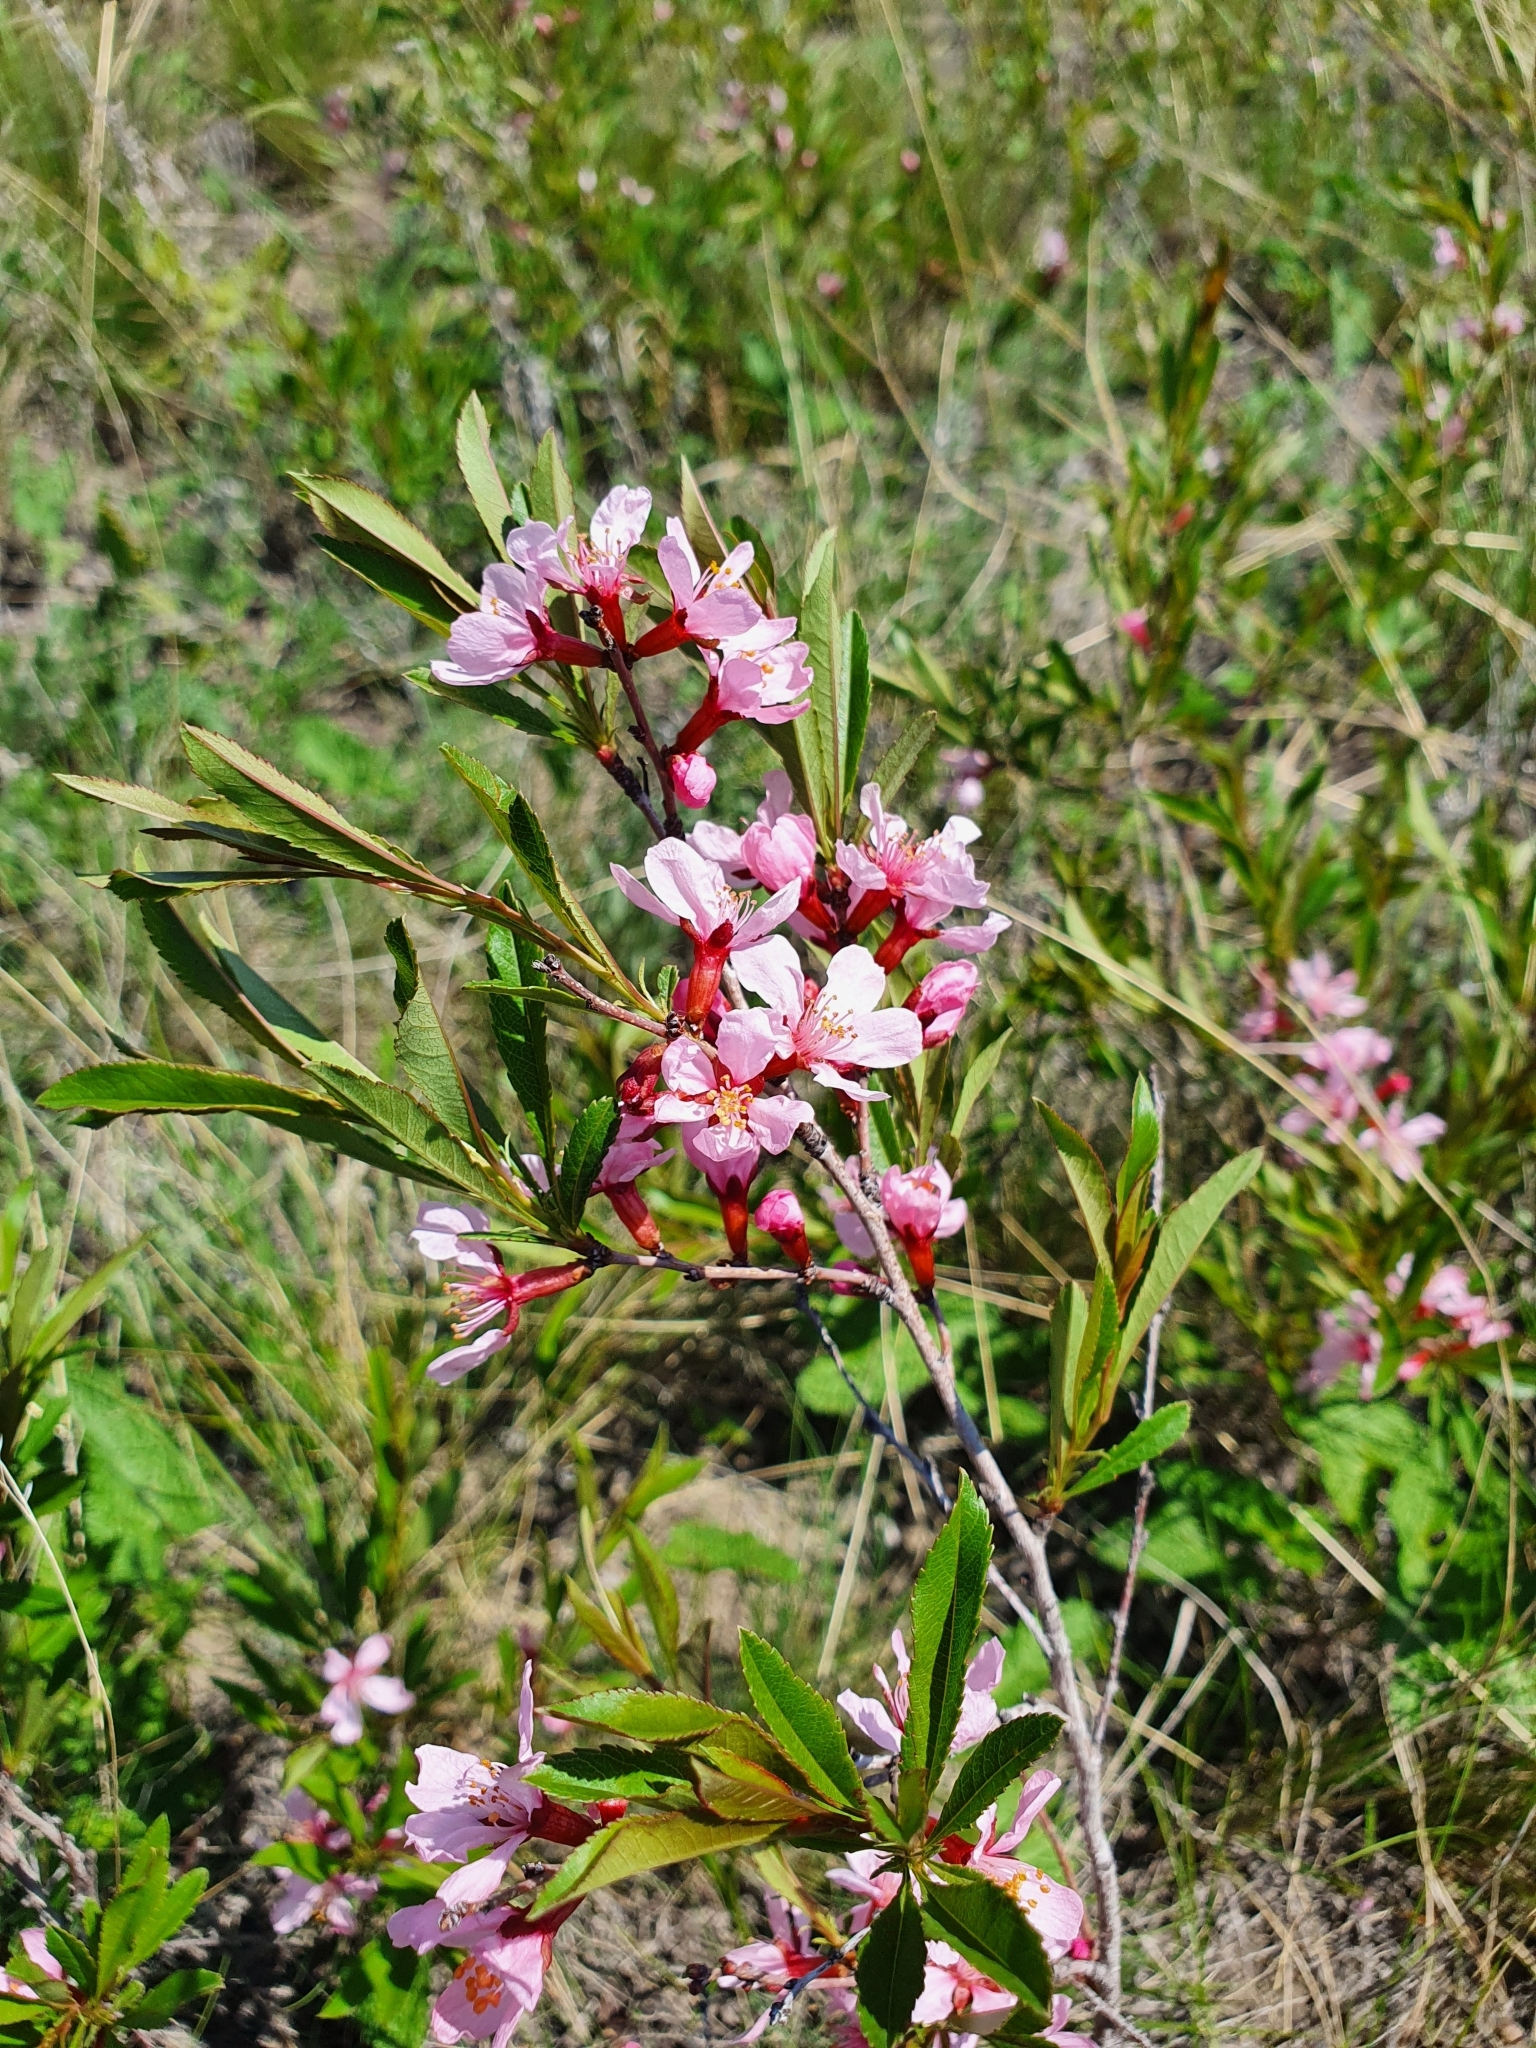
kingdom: Plantae
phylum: Tracheophyta
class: Magnoliopsida
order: Rosales
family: Rosaceae
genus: Prunus
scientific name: Prunus tenella
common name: Dwarf russian almond
